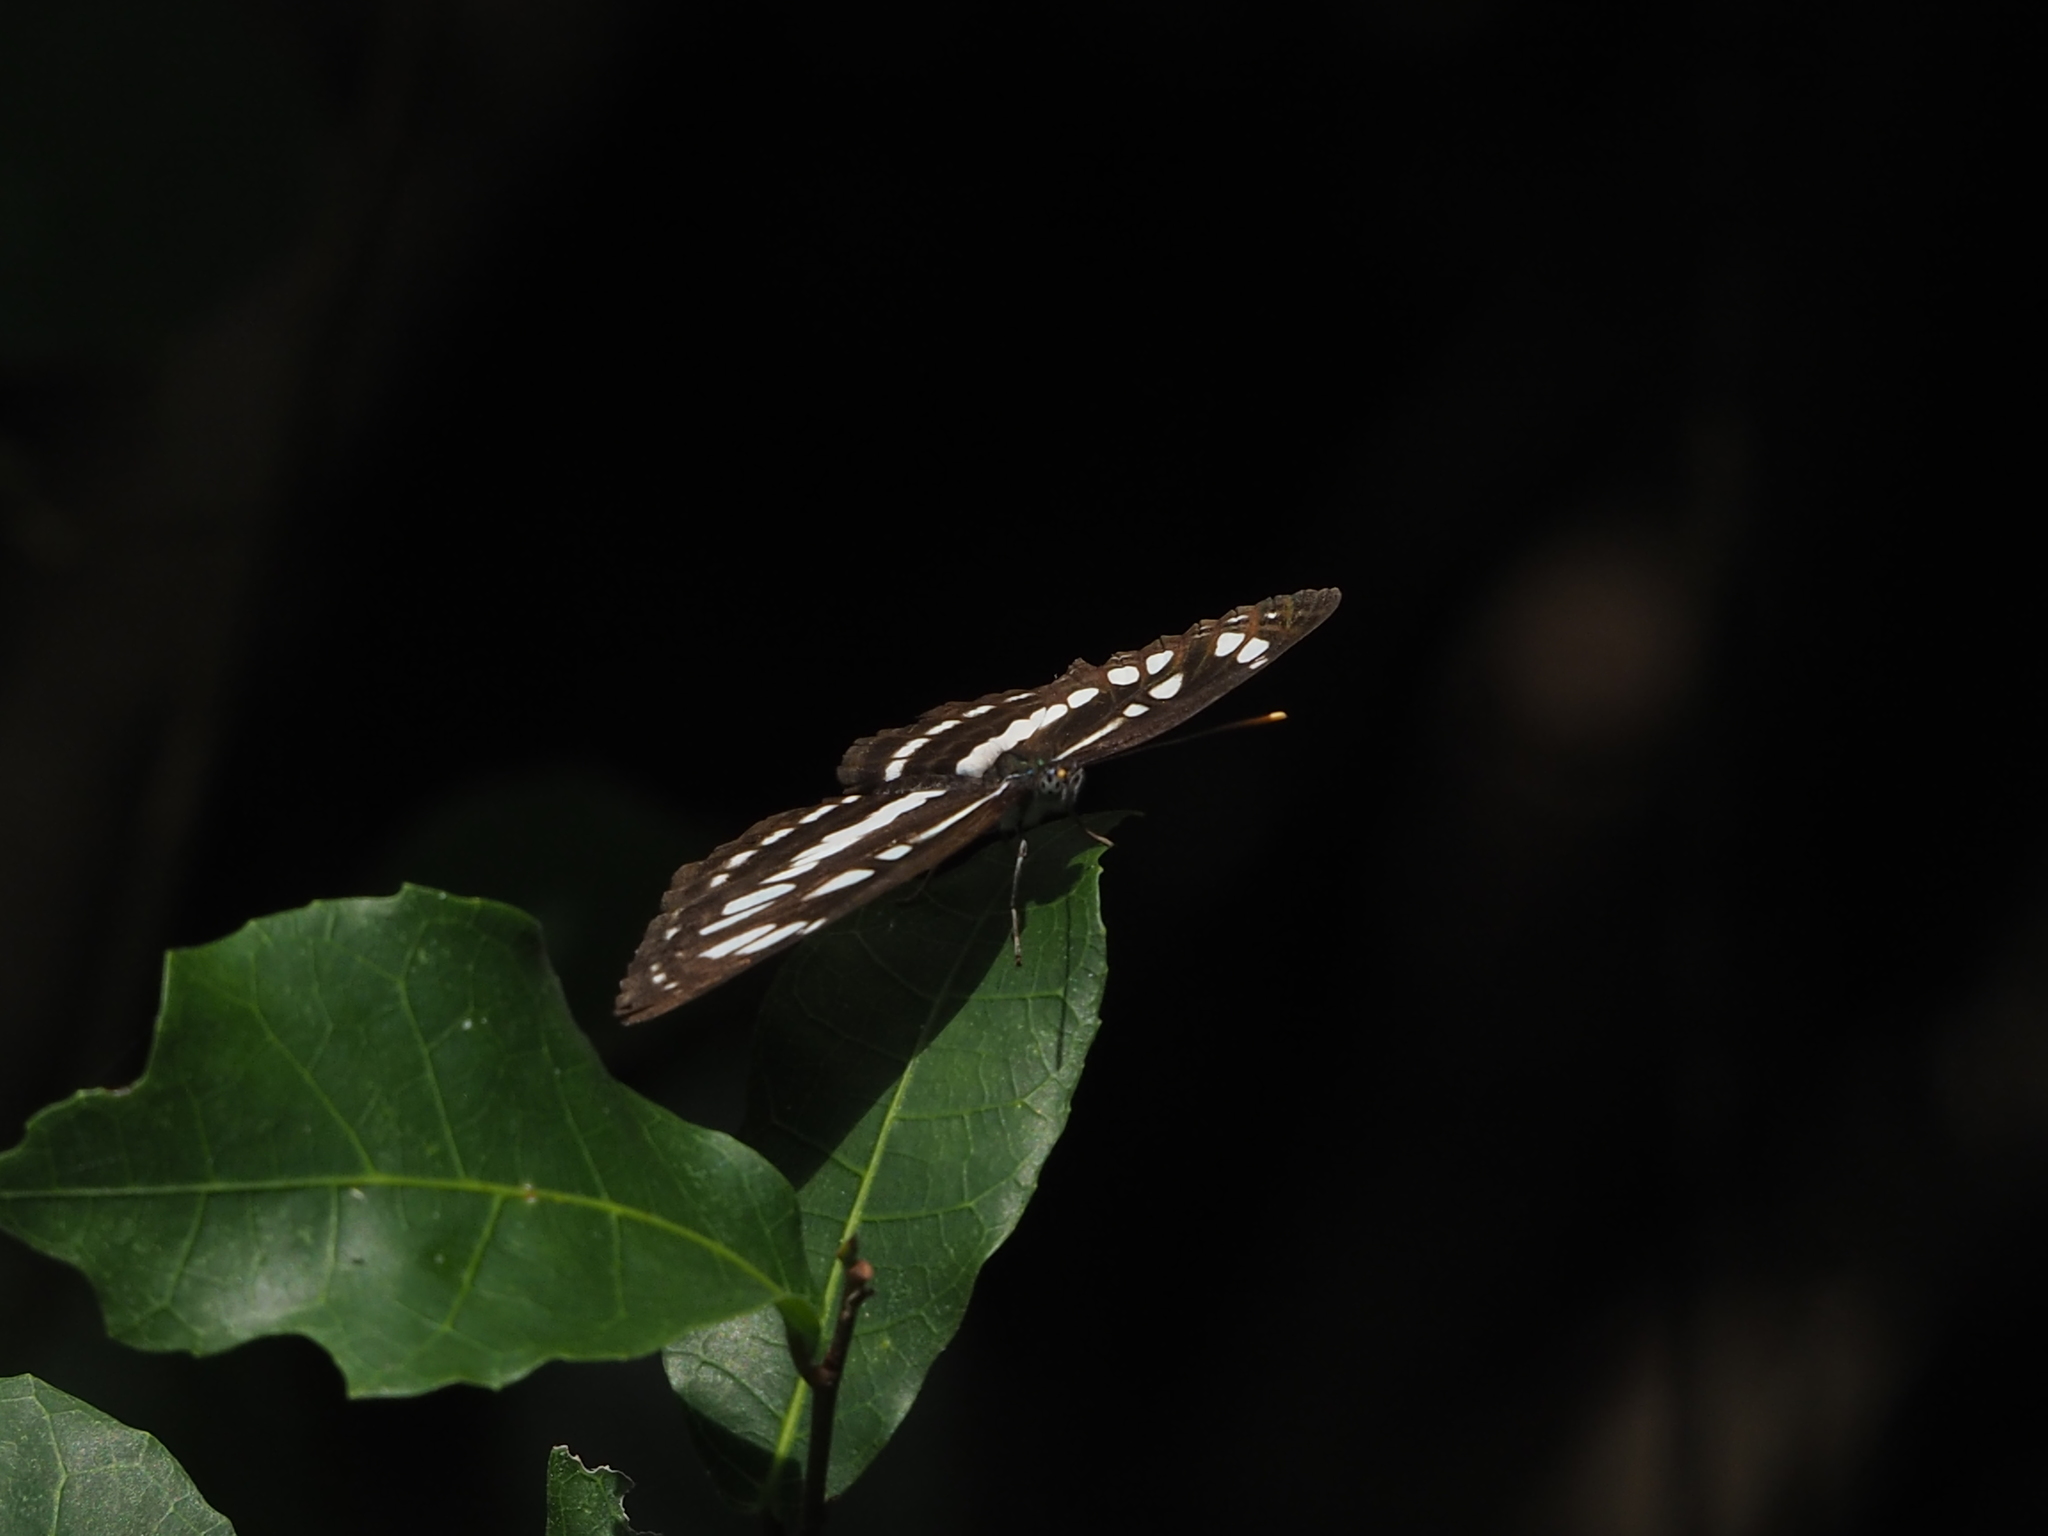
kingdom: Animalia
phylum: Arthropoda
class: Insecta
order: Lepidoptera
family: Nymphalidae
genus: Neptis
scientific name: Neptis hylas
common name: Common sailer
